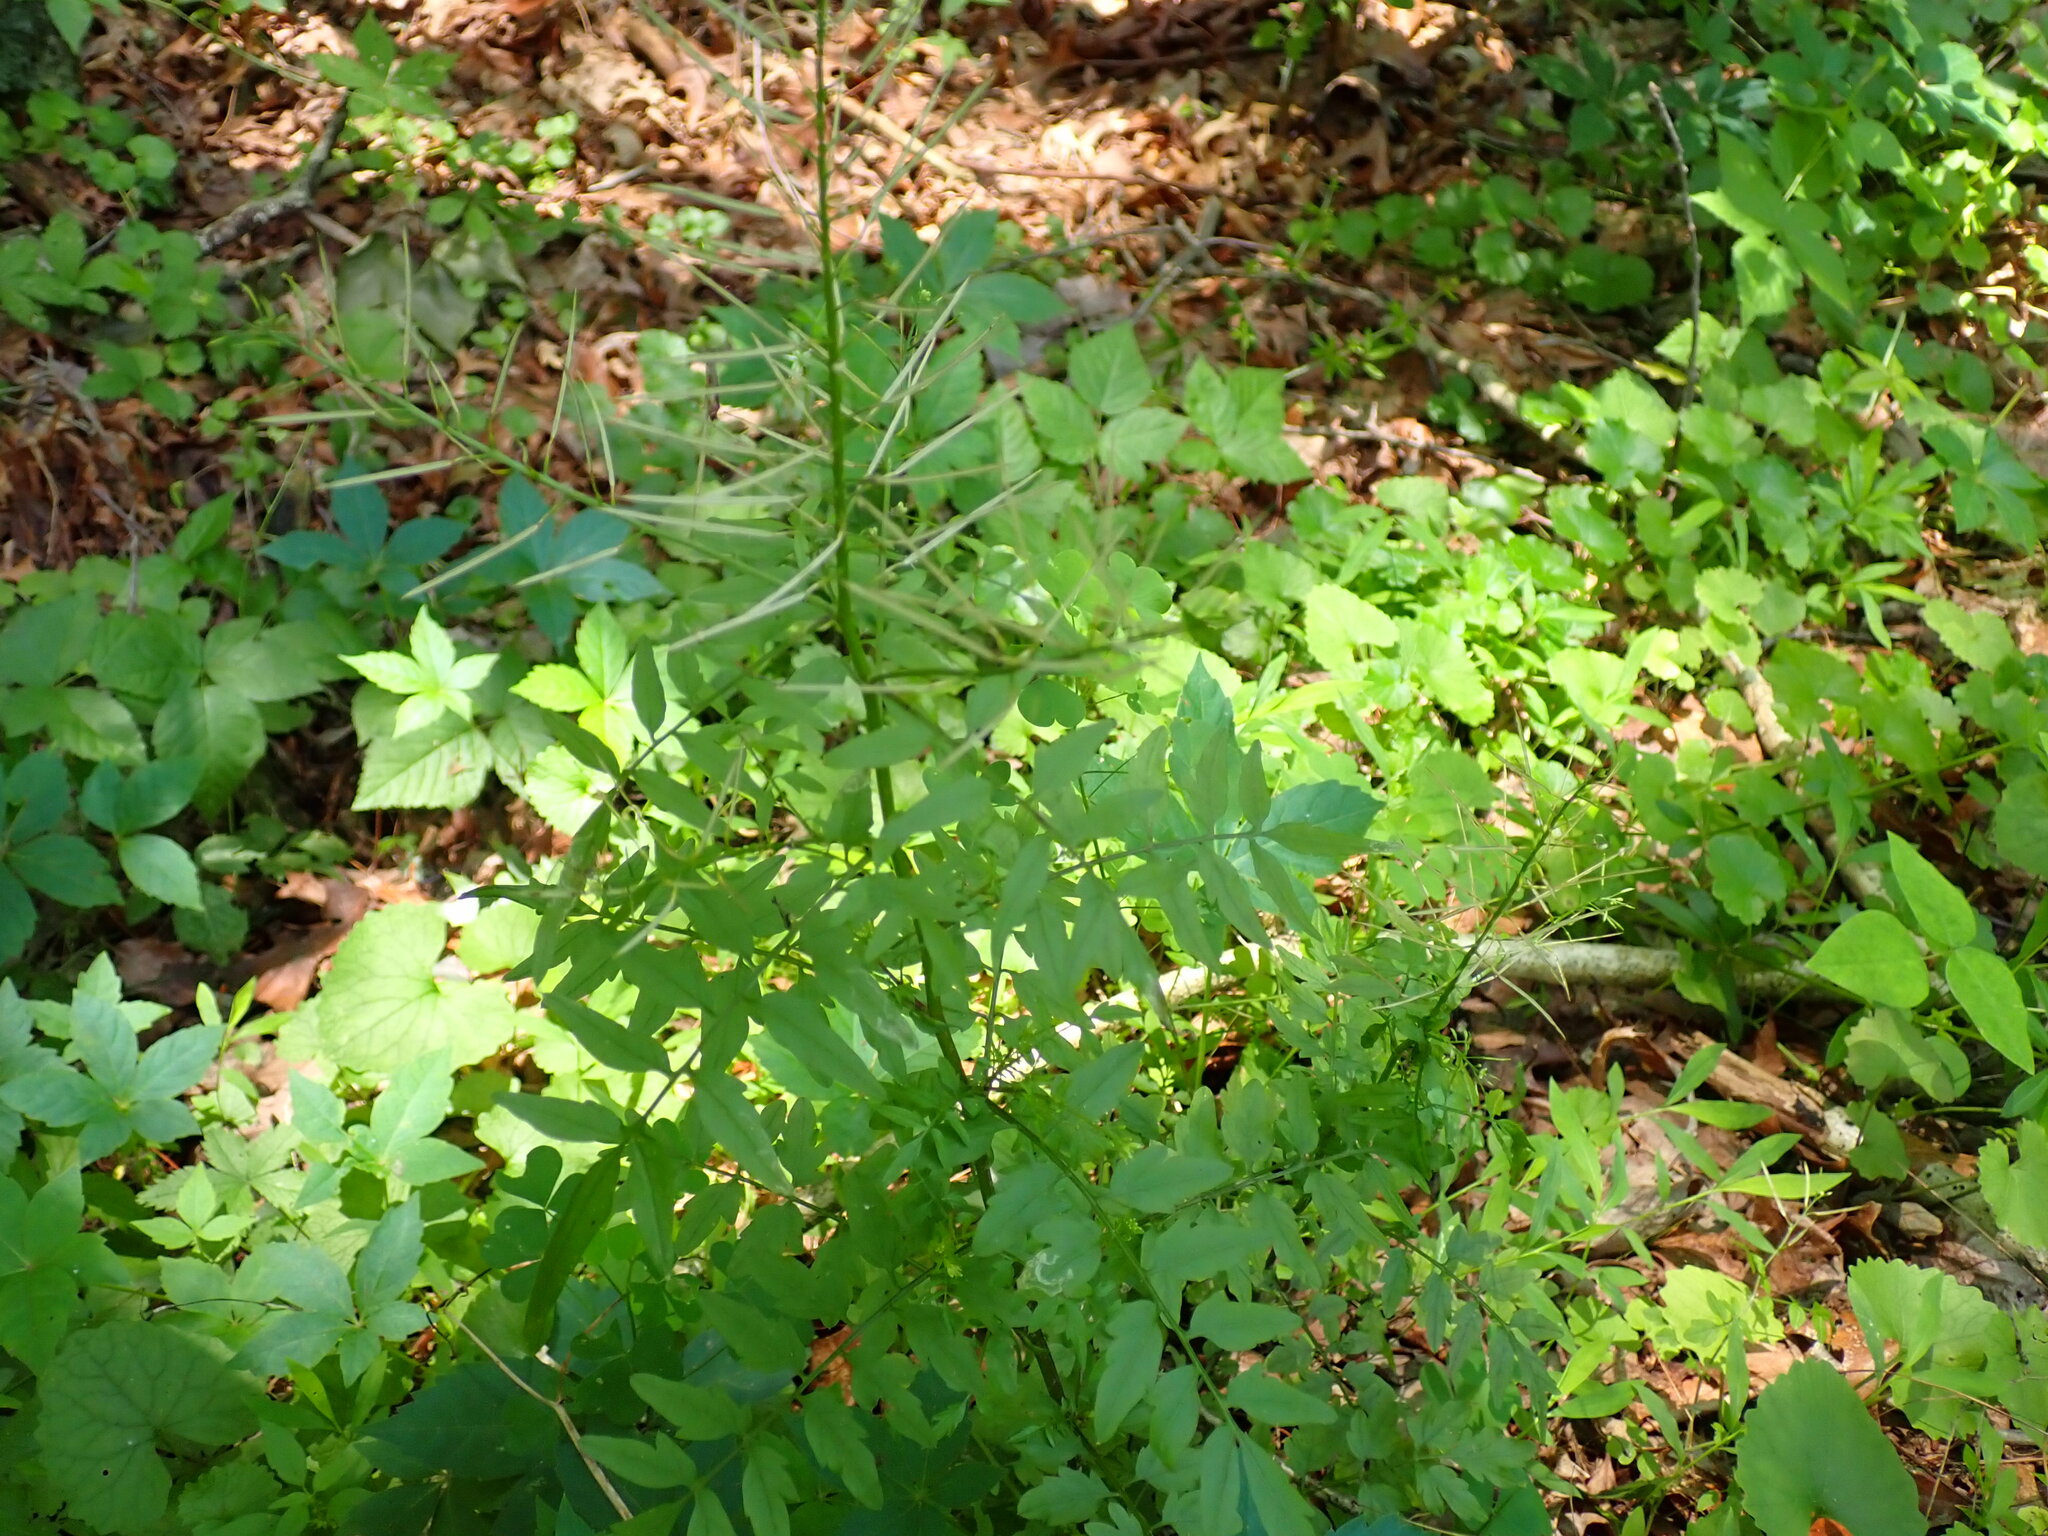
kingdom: Plantae
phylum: Tracheophyta
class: Magnoliopsida
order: Brassicales
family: Brassicaceae
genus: Cardamine
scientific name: Cardamine impatiens
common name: Narrow-leaved bitter-cress
